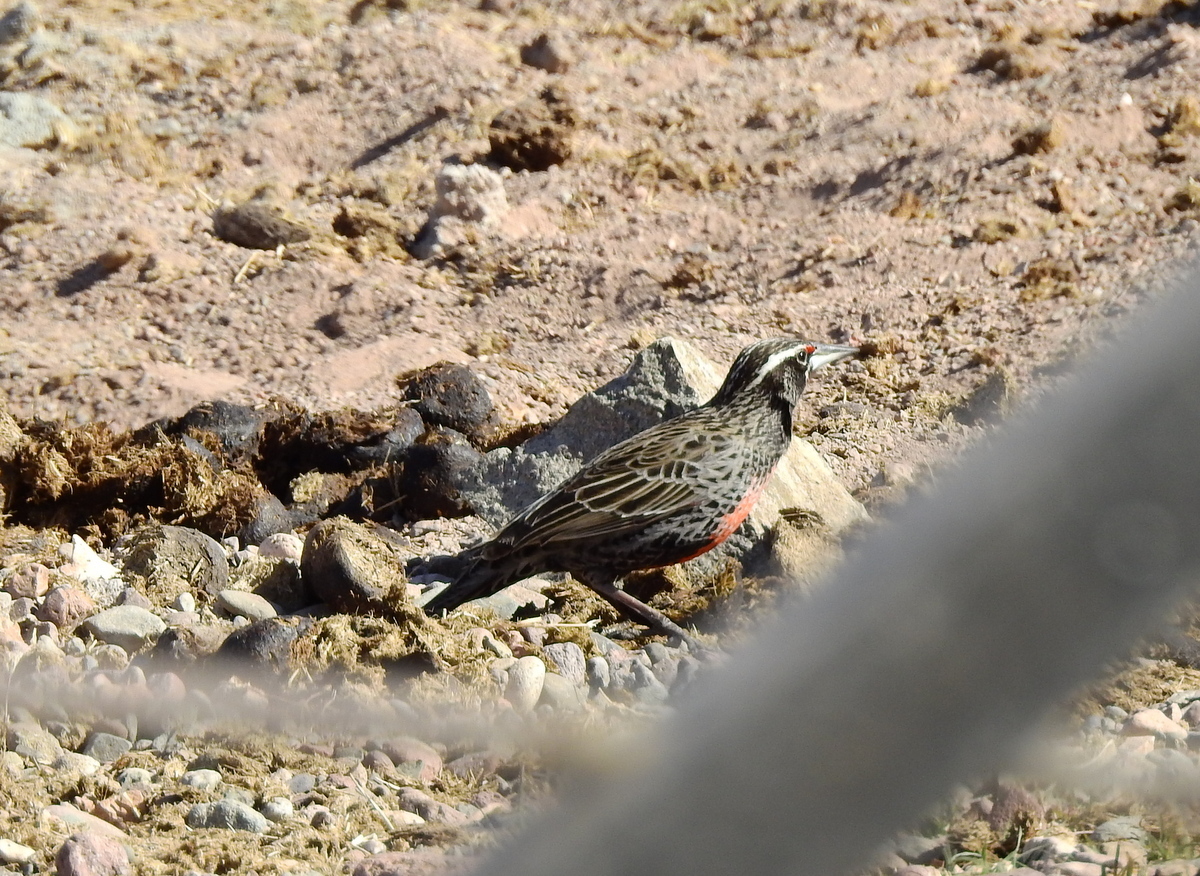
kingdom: Animalia
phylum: Chordata
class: Aves
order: Passeriformes
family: Icteridae
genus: Sturnella
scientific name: Sturnella loyca
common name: Long-tailed meadowlark
